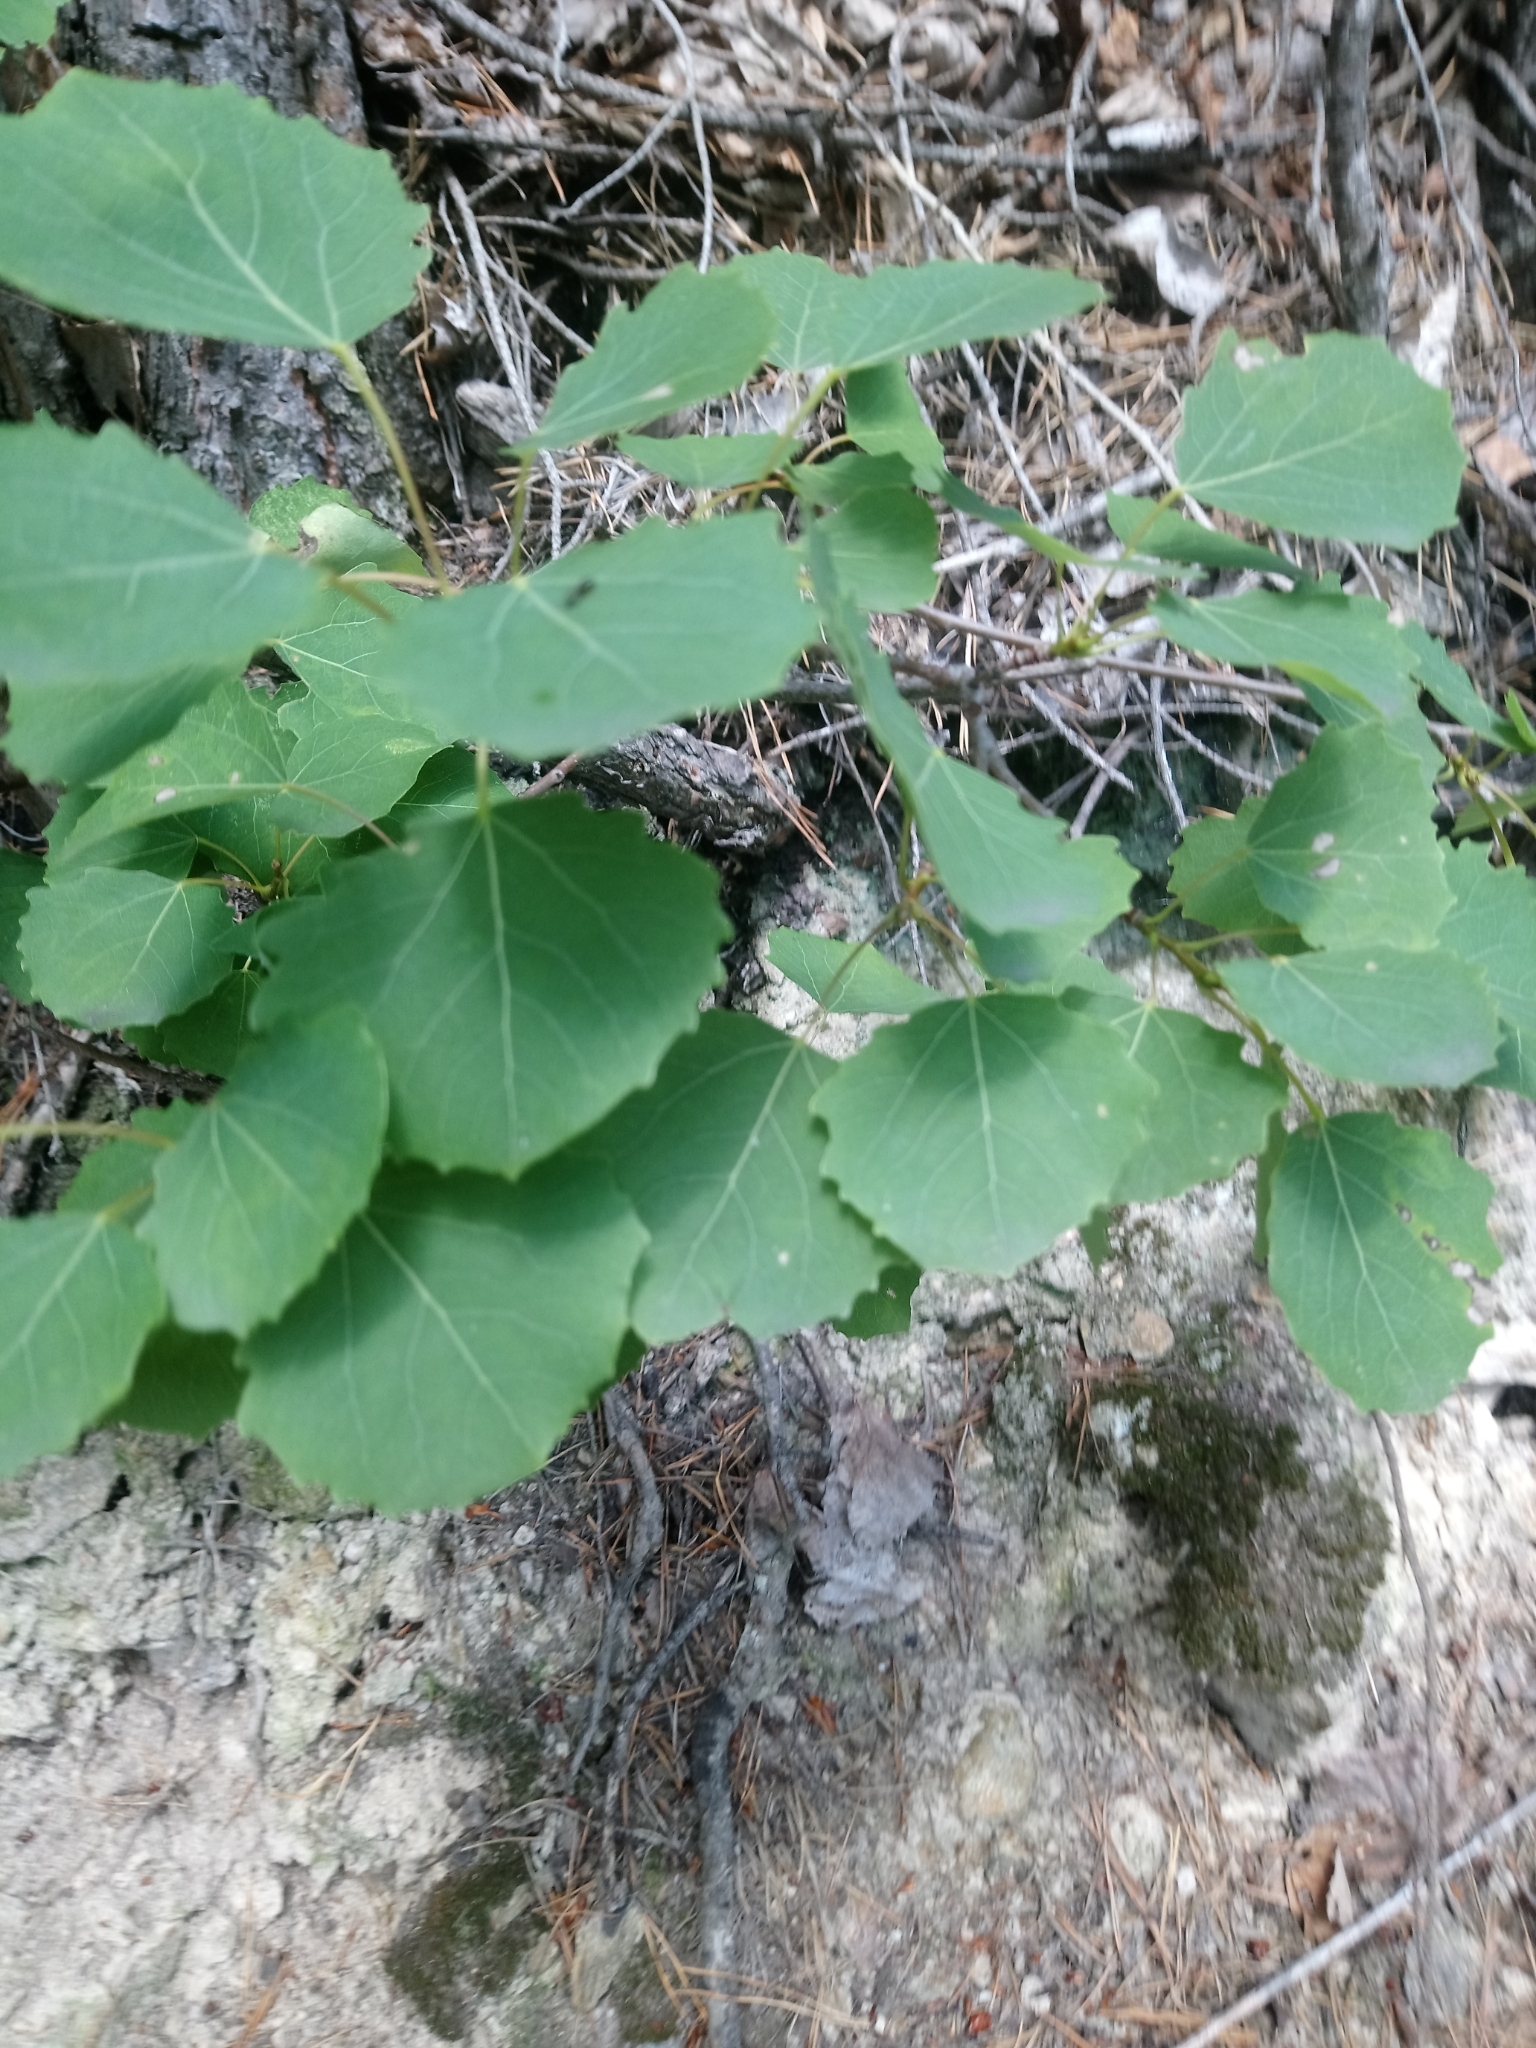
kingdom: Plantae
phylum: Tracheophyta
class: Magnoliopsida
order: Malpighiales
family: Salicaceae
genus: Populus
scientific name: Populus tremula
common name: European aspen
